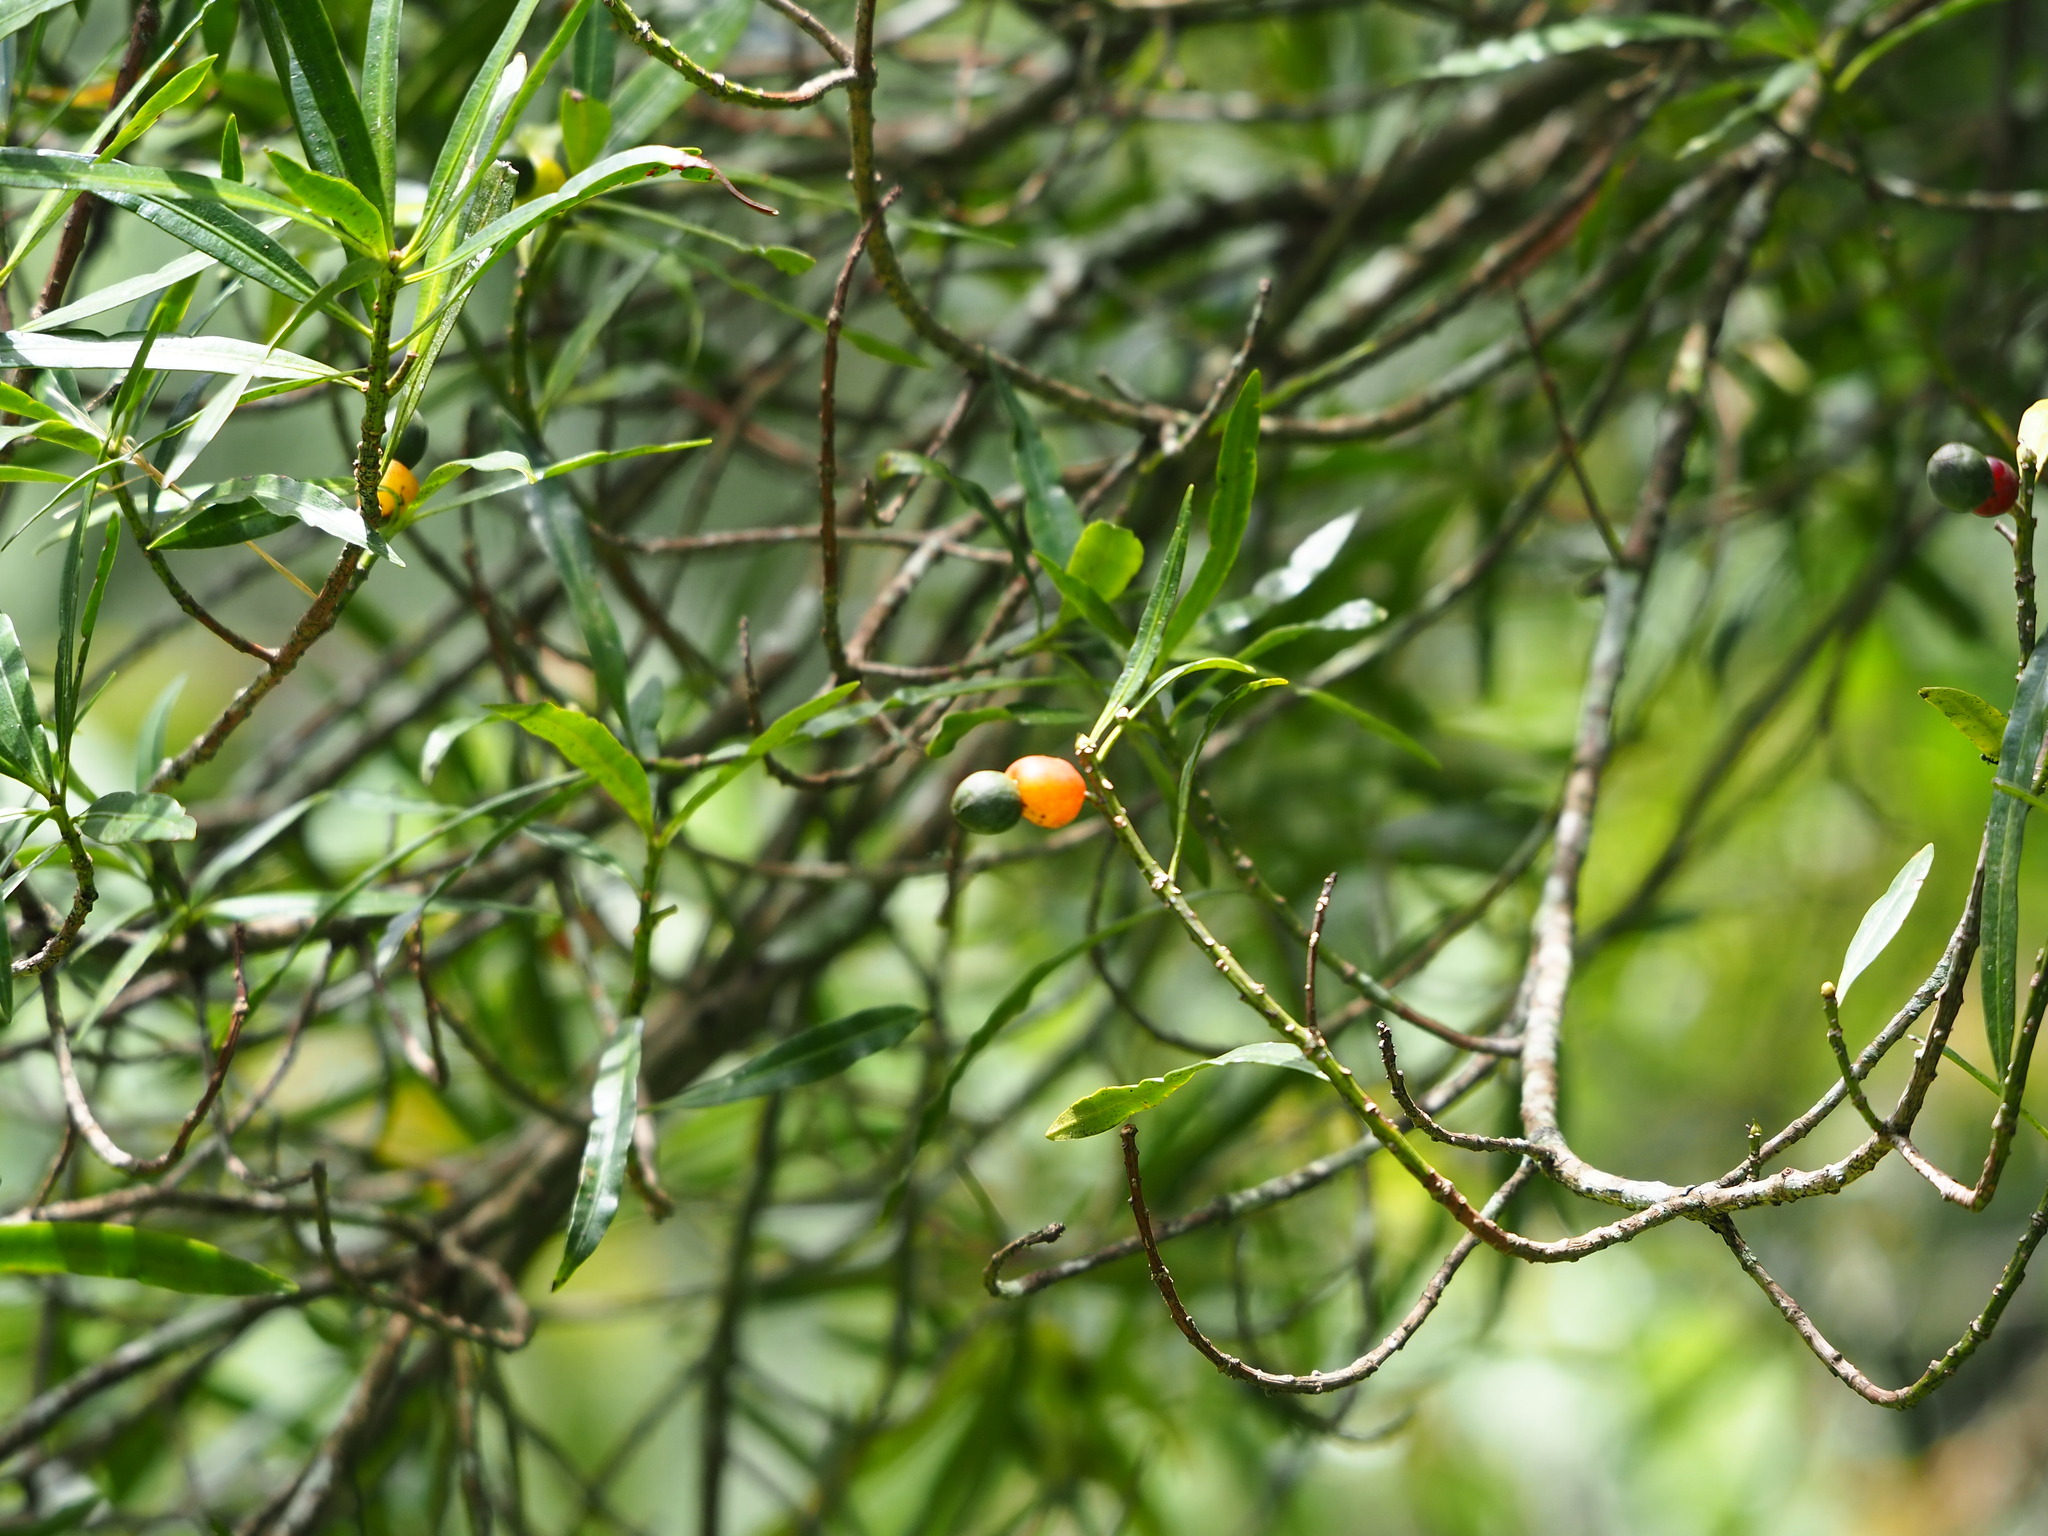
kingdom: Plantae
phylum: Tracheophyta
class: Pinopsida
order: Pinales
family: Podocarpaceae
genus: Podocarpus
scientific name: Podocarpus nakaii
